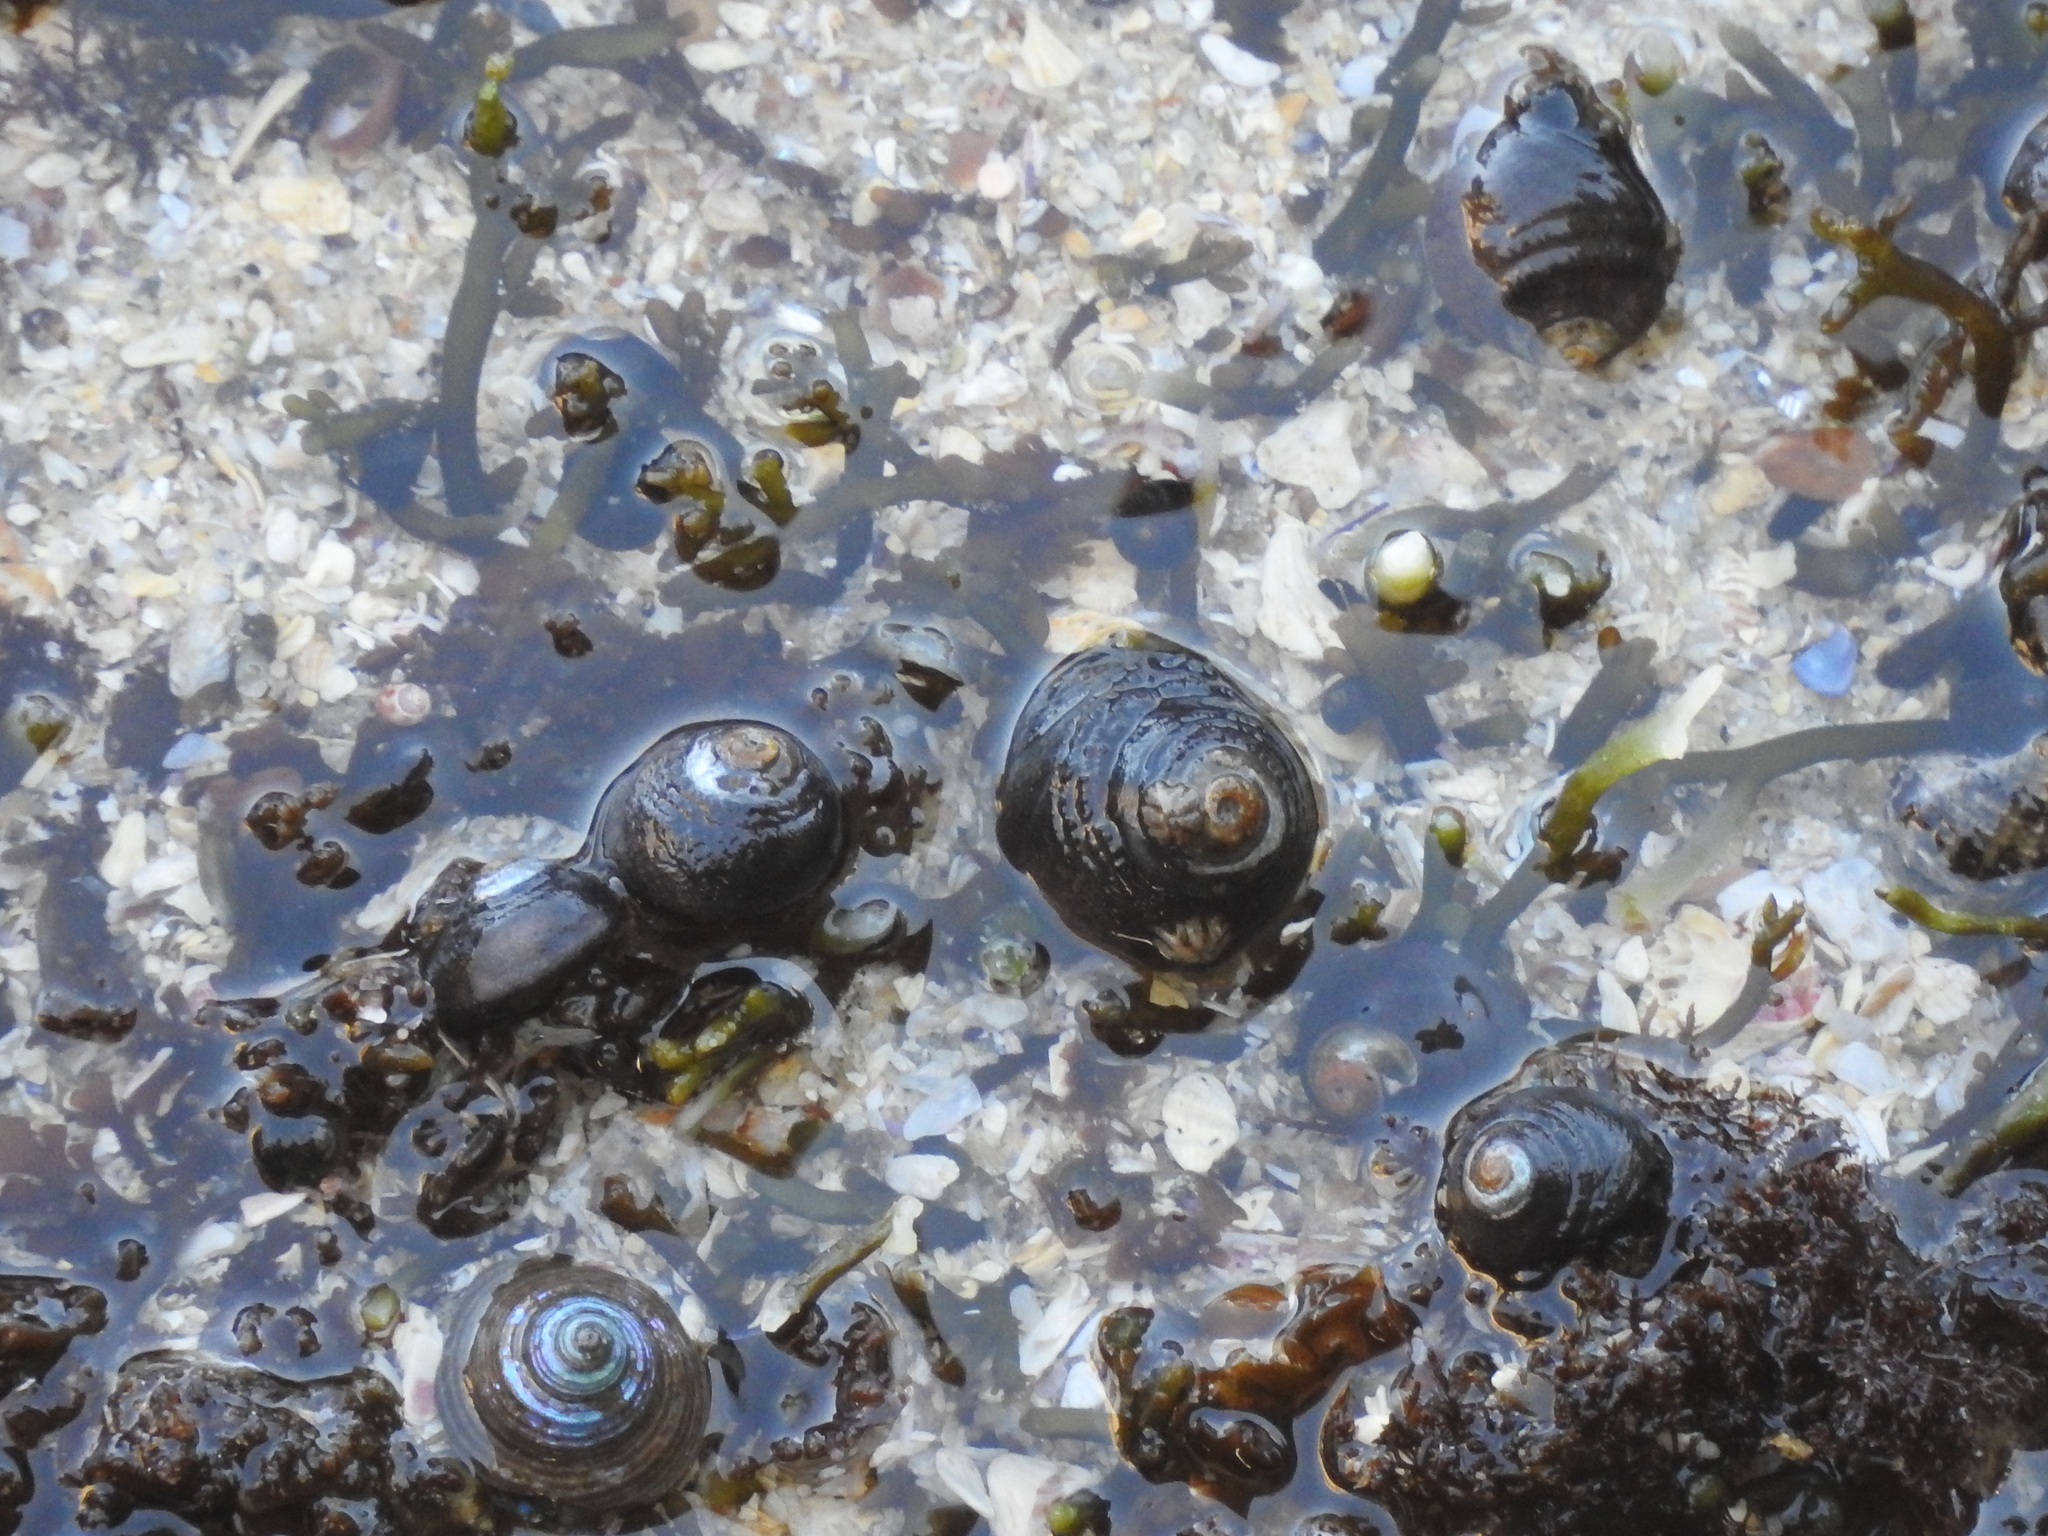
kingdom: Animalia
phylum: Mollusca
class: Gastropoda
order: Trochida
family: Tegulidae
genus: Tegula
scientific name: Tegula funebralis
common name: Black tegula
